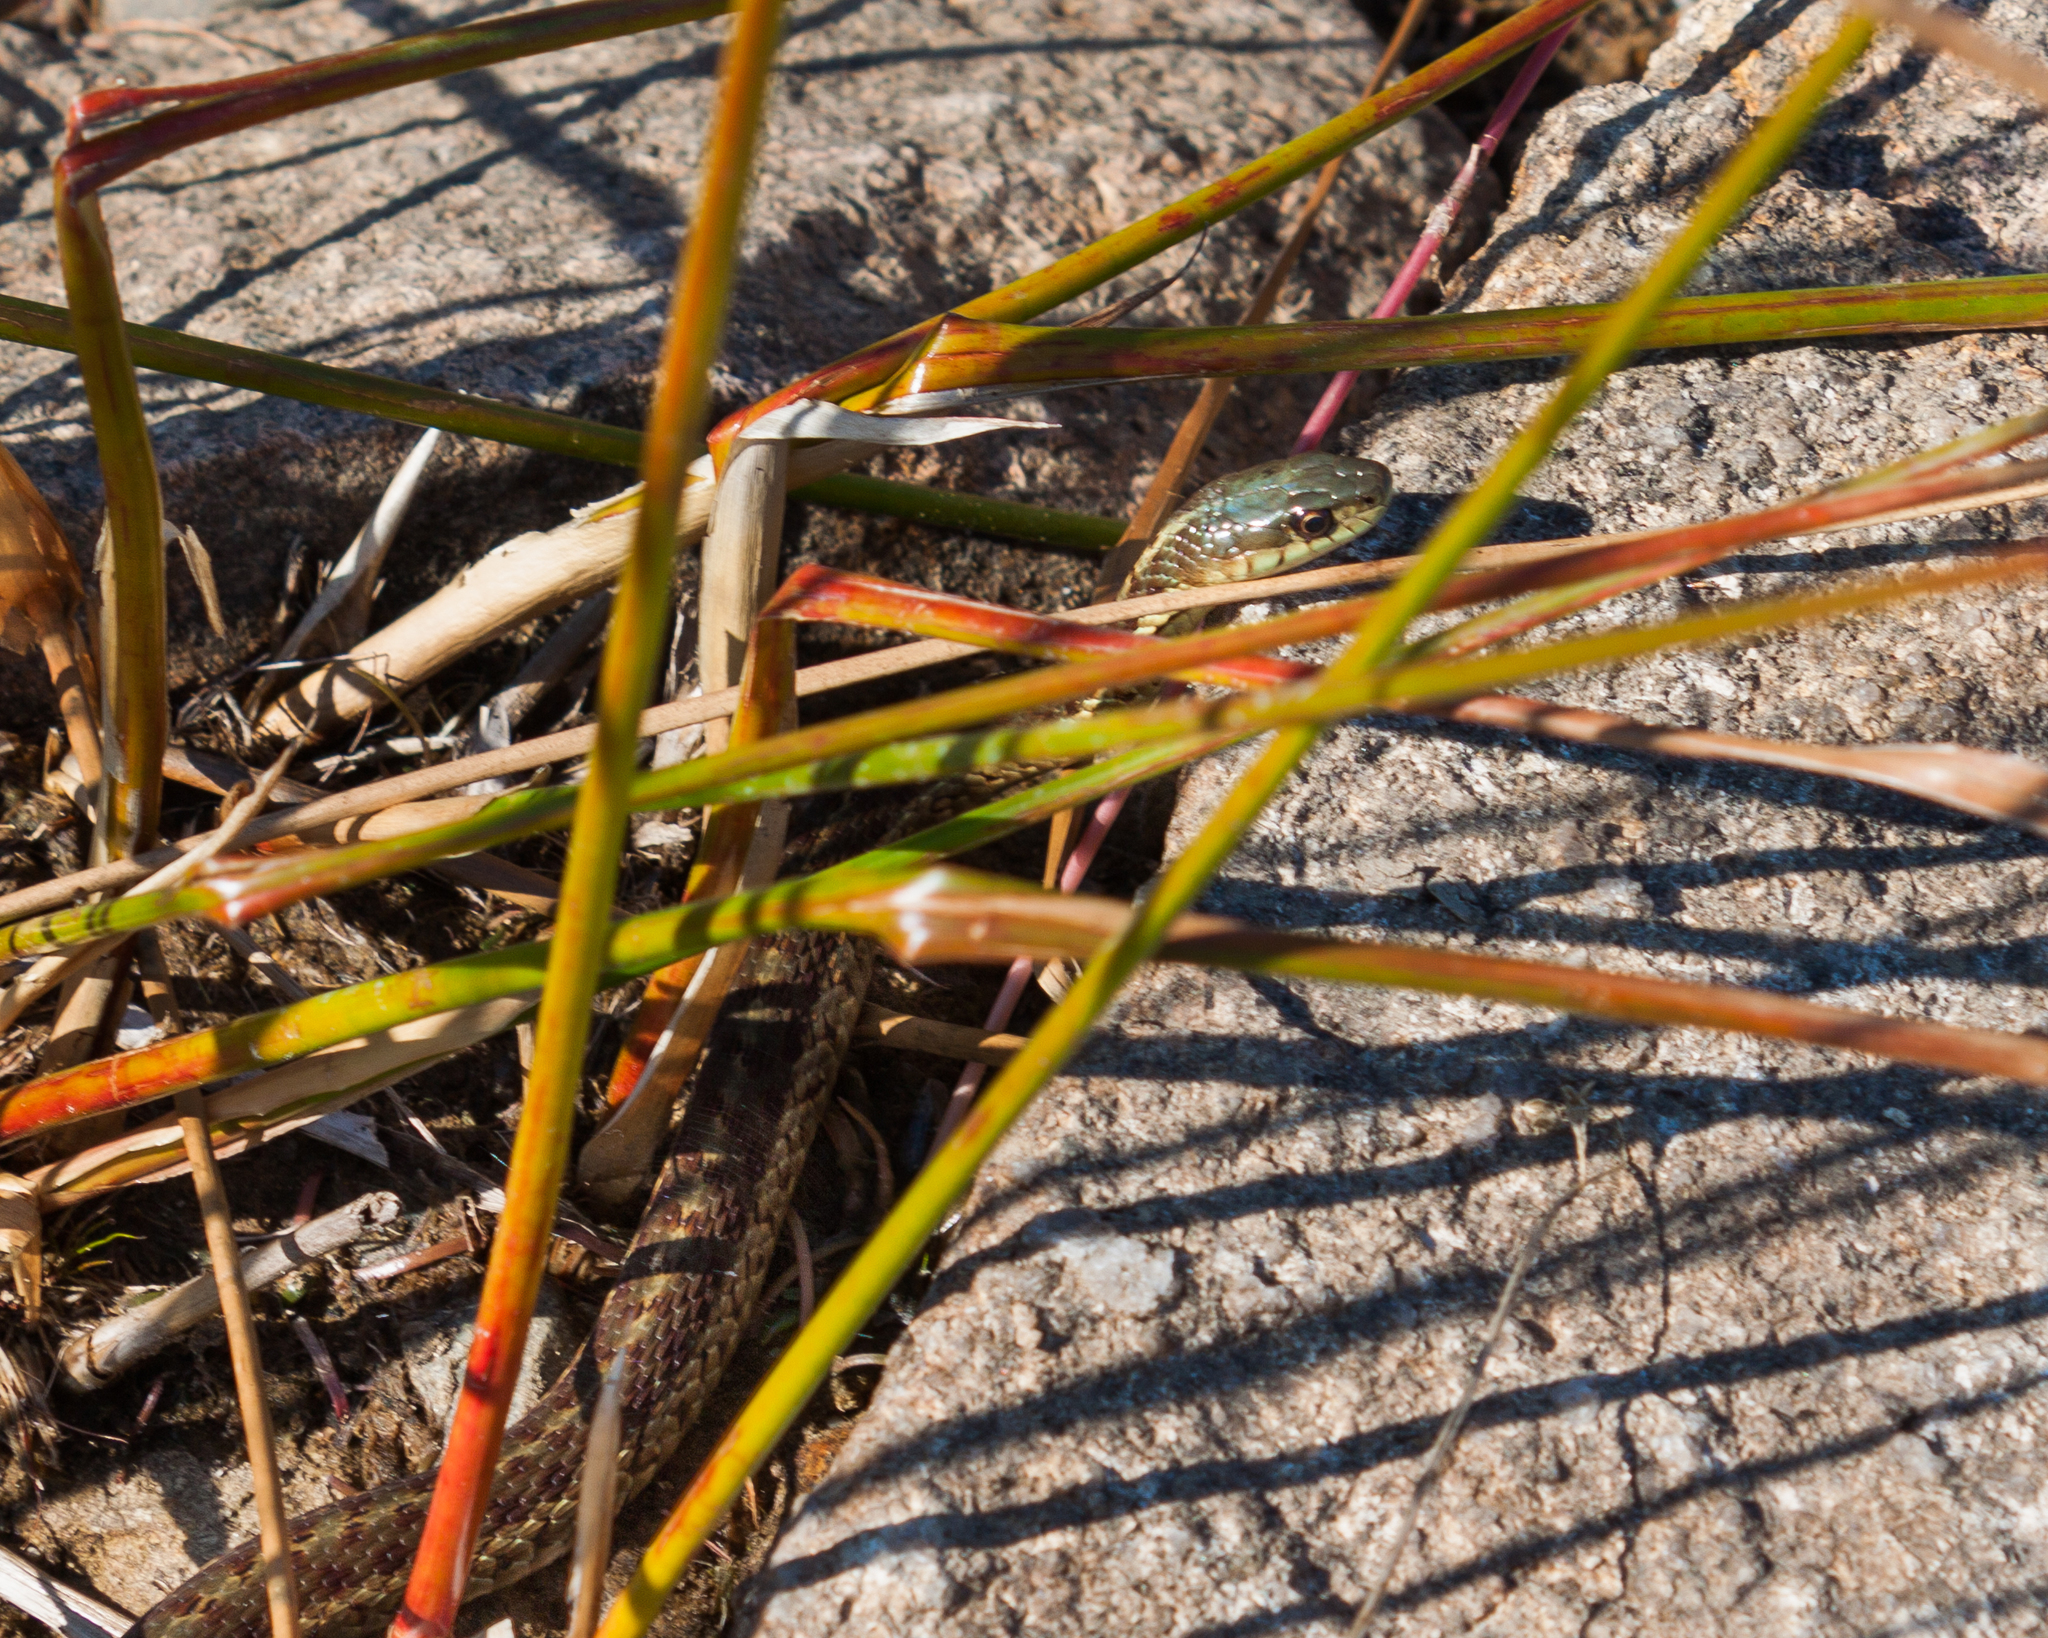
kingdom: Animalia
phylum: Chordata
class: Squamata
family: Colubridae
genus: Thamnophis
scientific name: Thamnophis sirtalis
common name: Common garter snake
